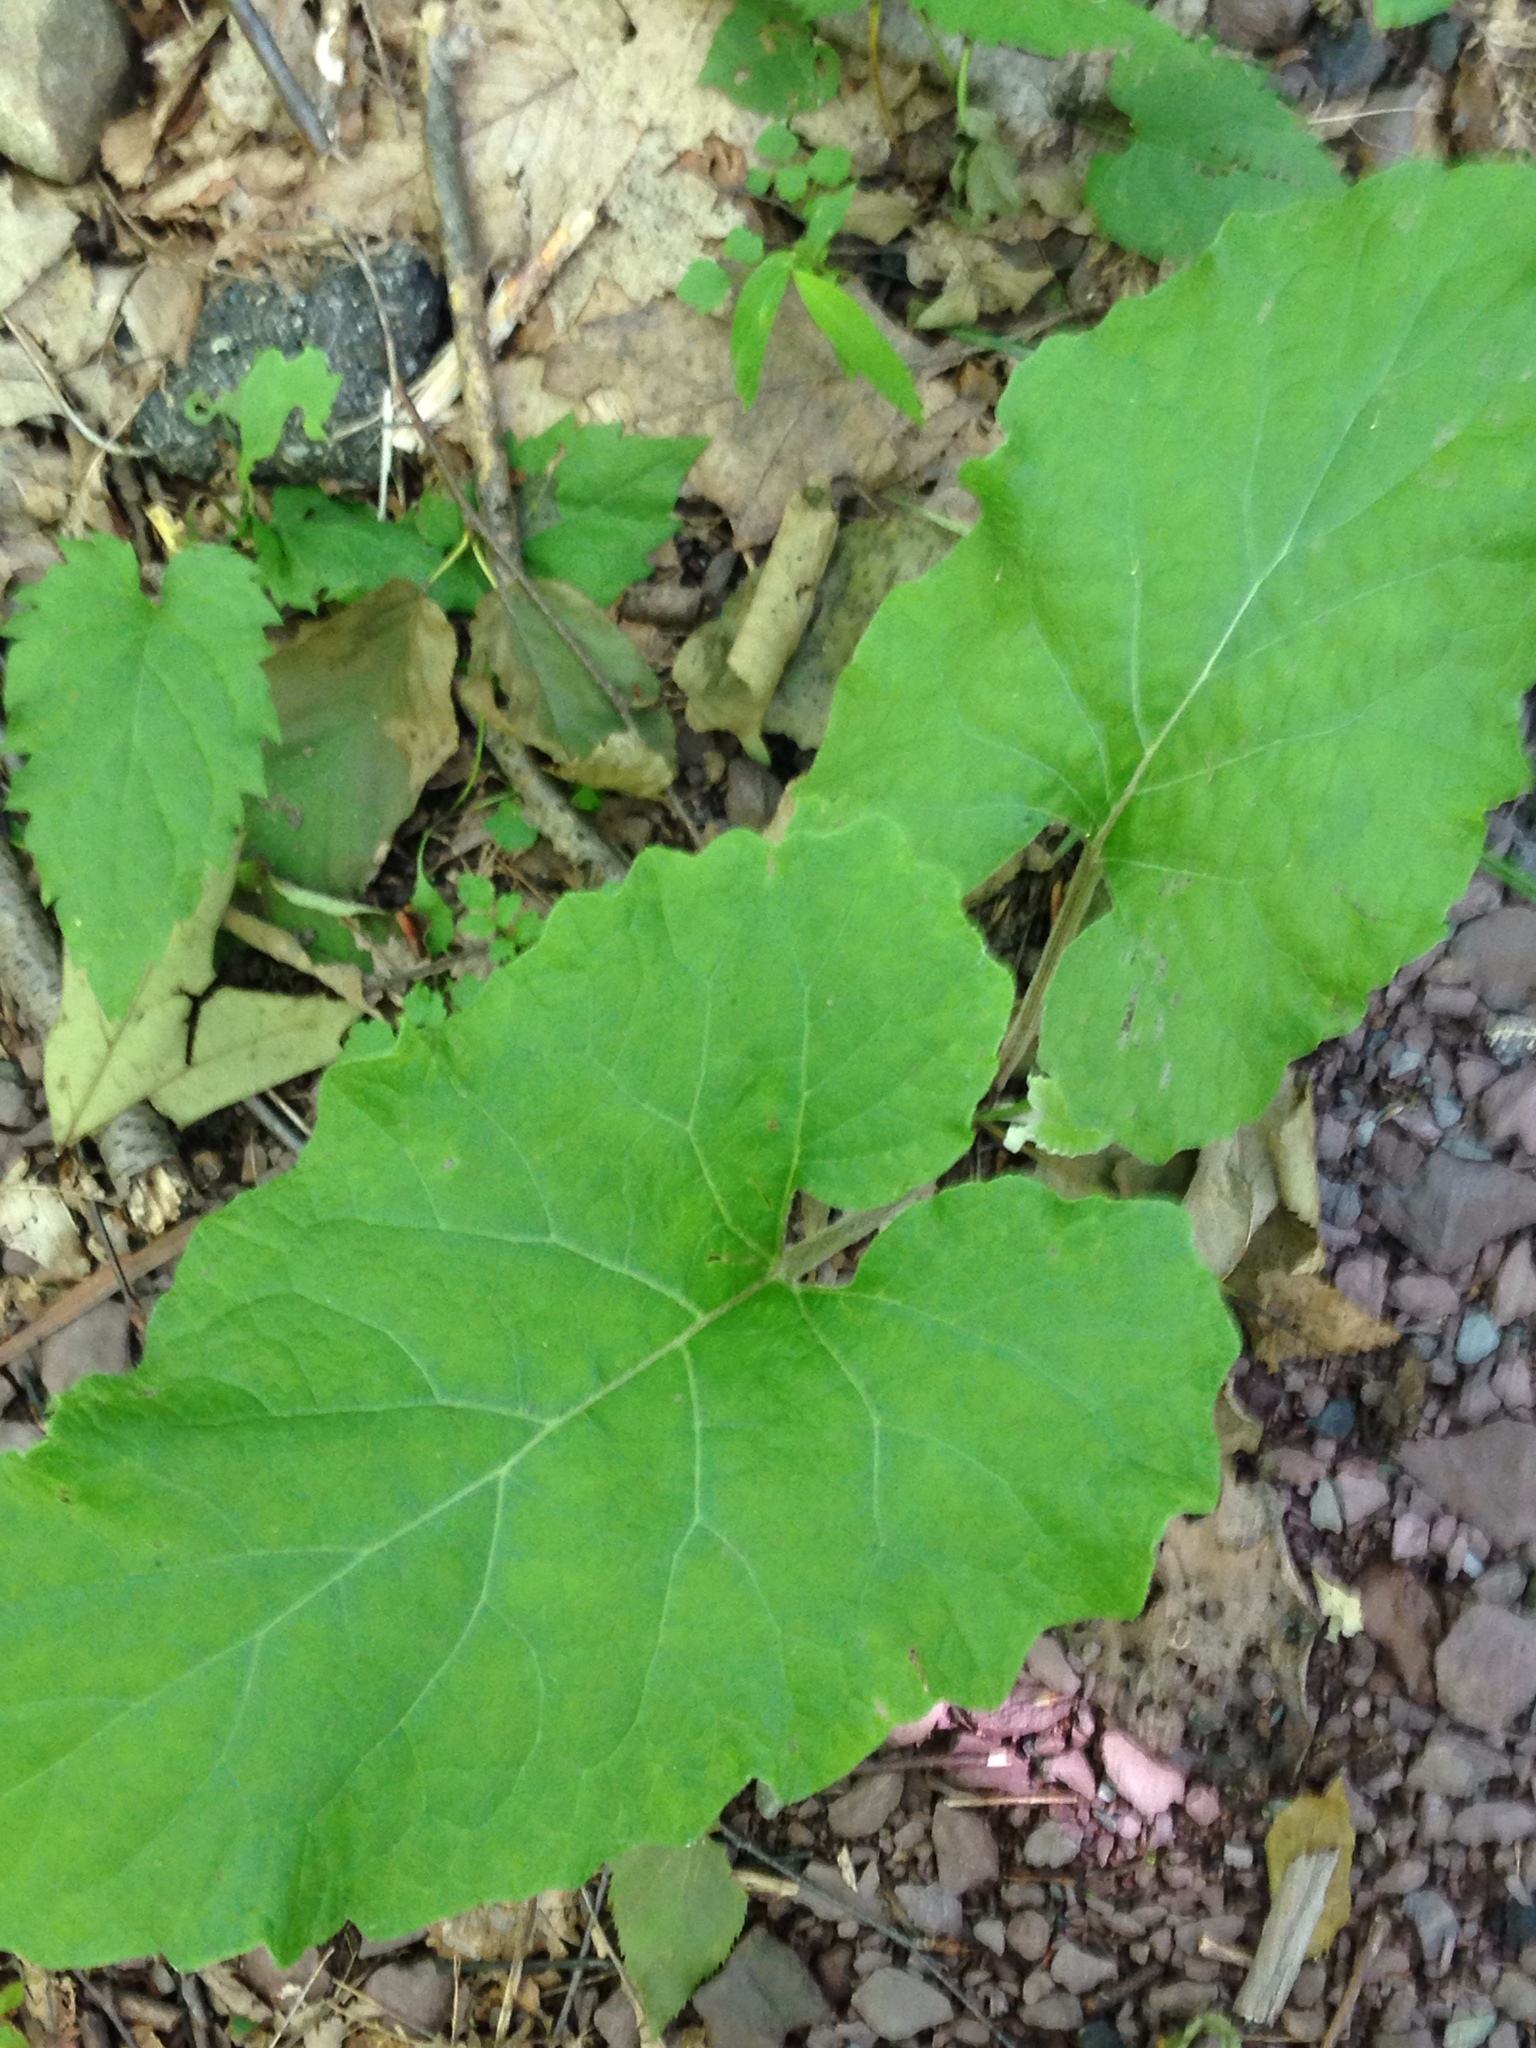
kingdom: Plantae
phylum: Tracheophyta
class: Magnoliopsida
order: Asterales
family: Asteraceae
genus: Arctium
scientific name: Arctium
